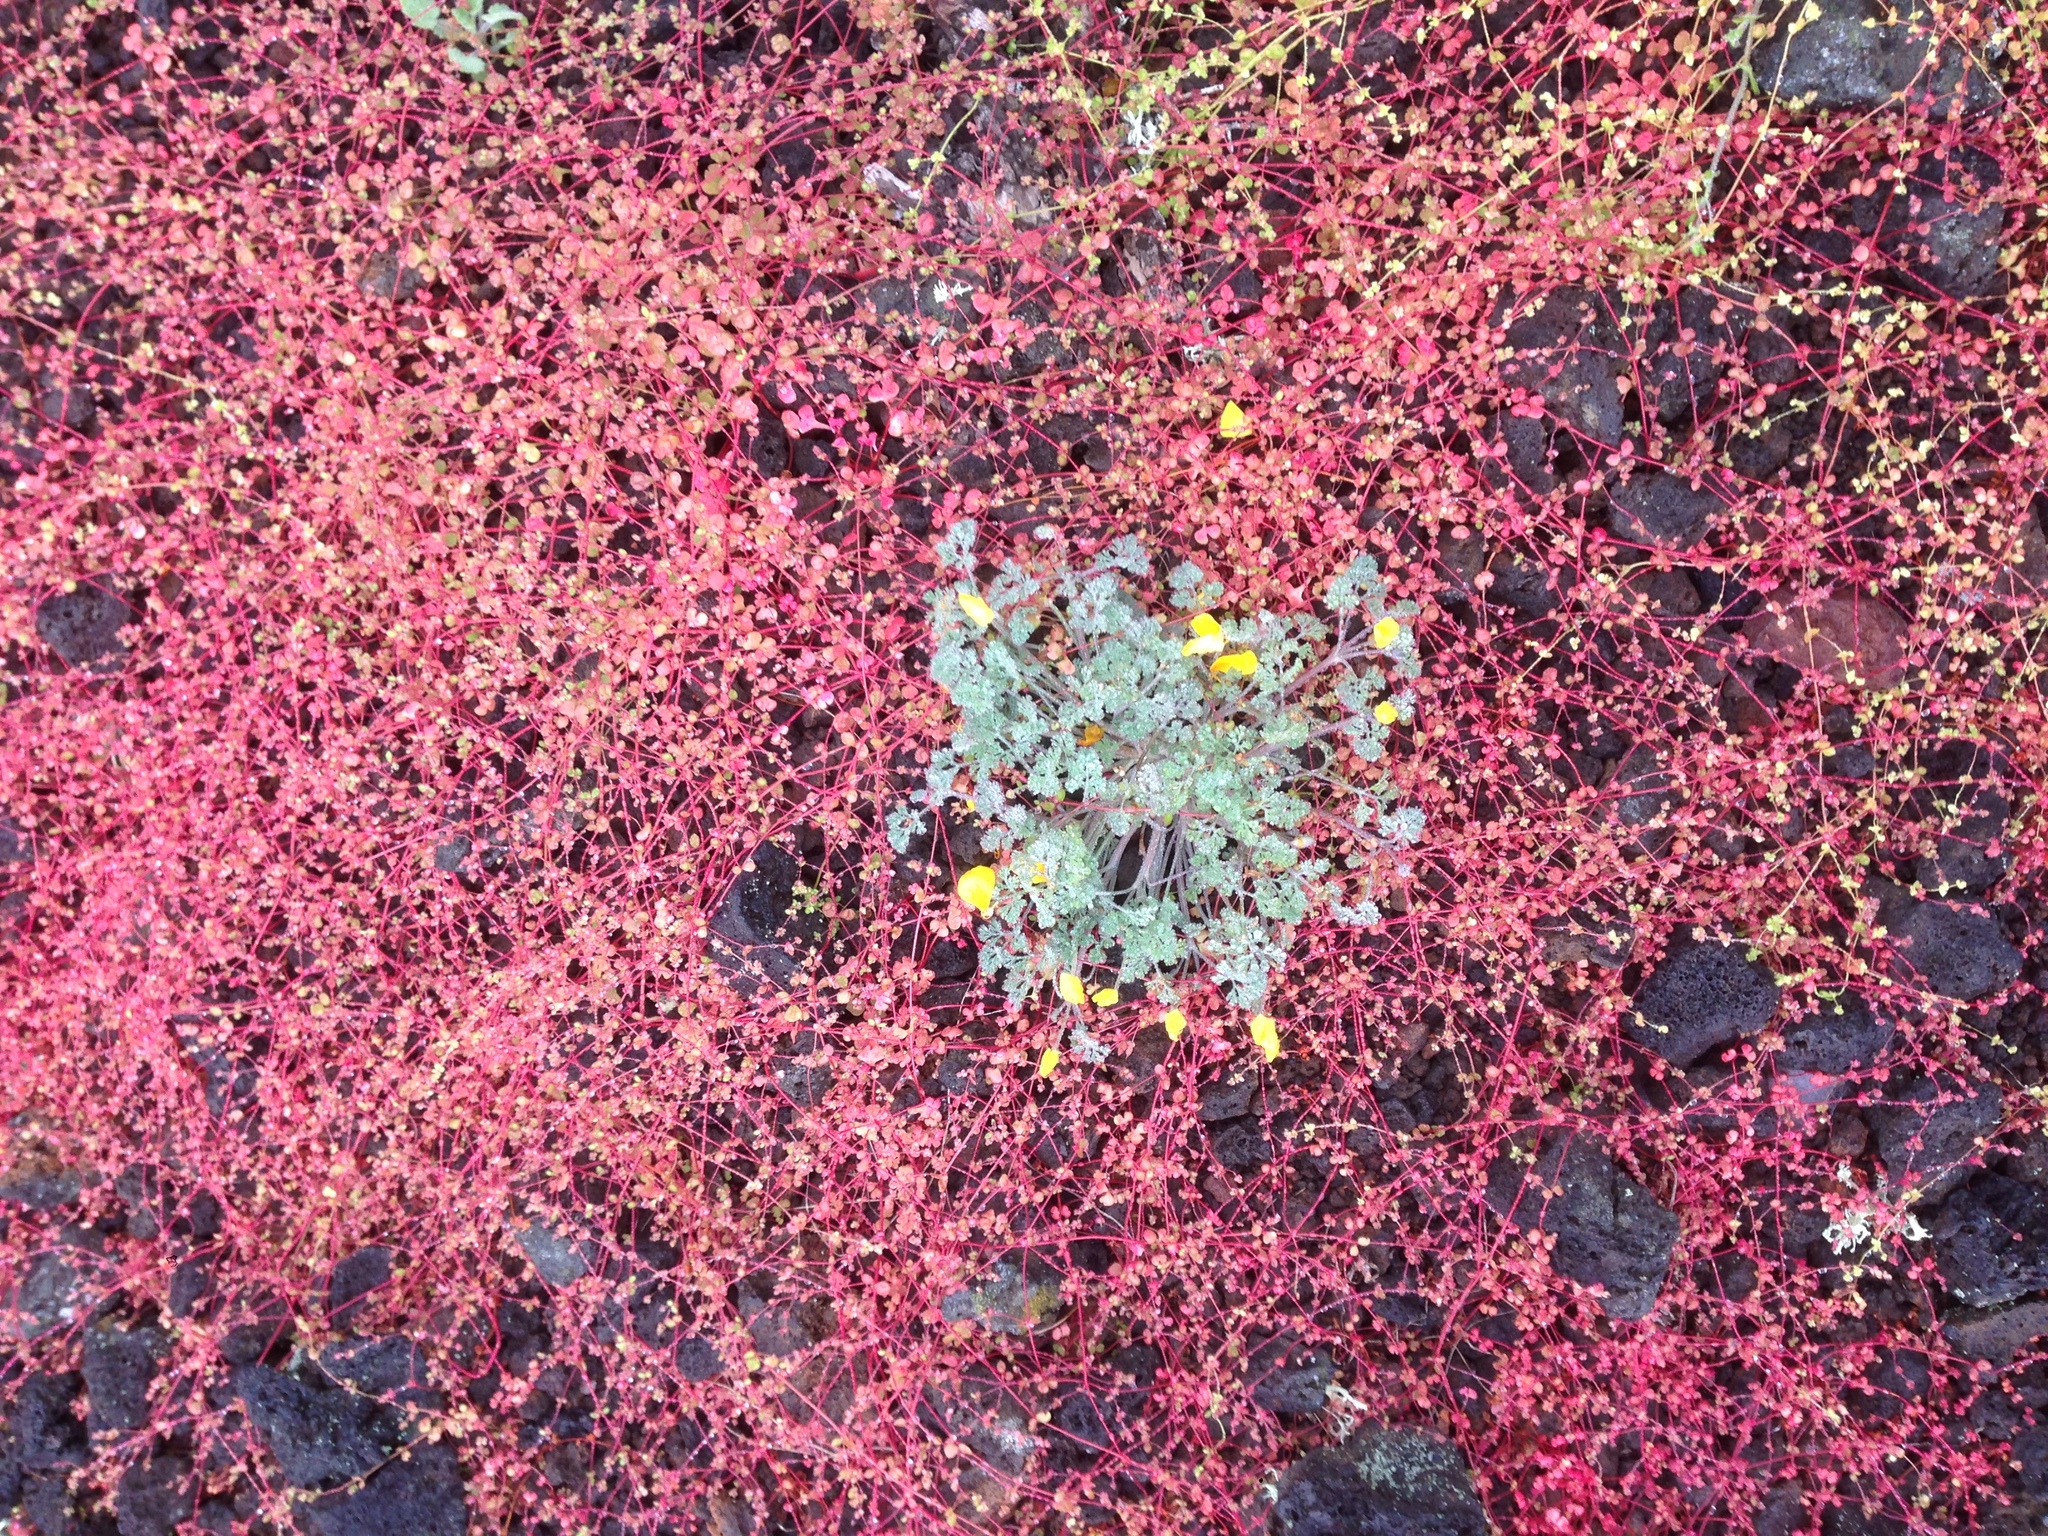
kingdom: Plantae
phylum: Tracheophyta
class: Magnoliopsida
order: Caryophyllales
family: Polygonaceae
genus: Pterostegia
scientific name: Pterostegia drymarioides
